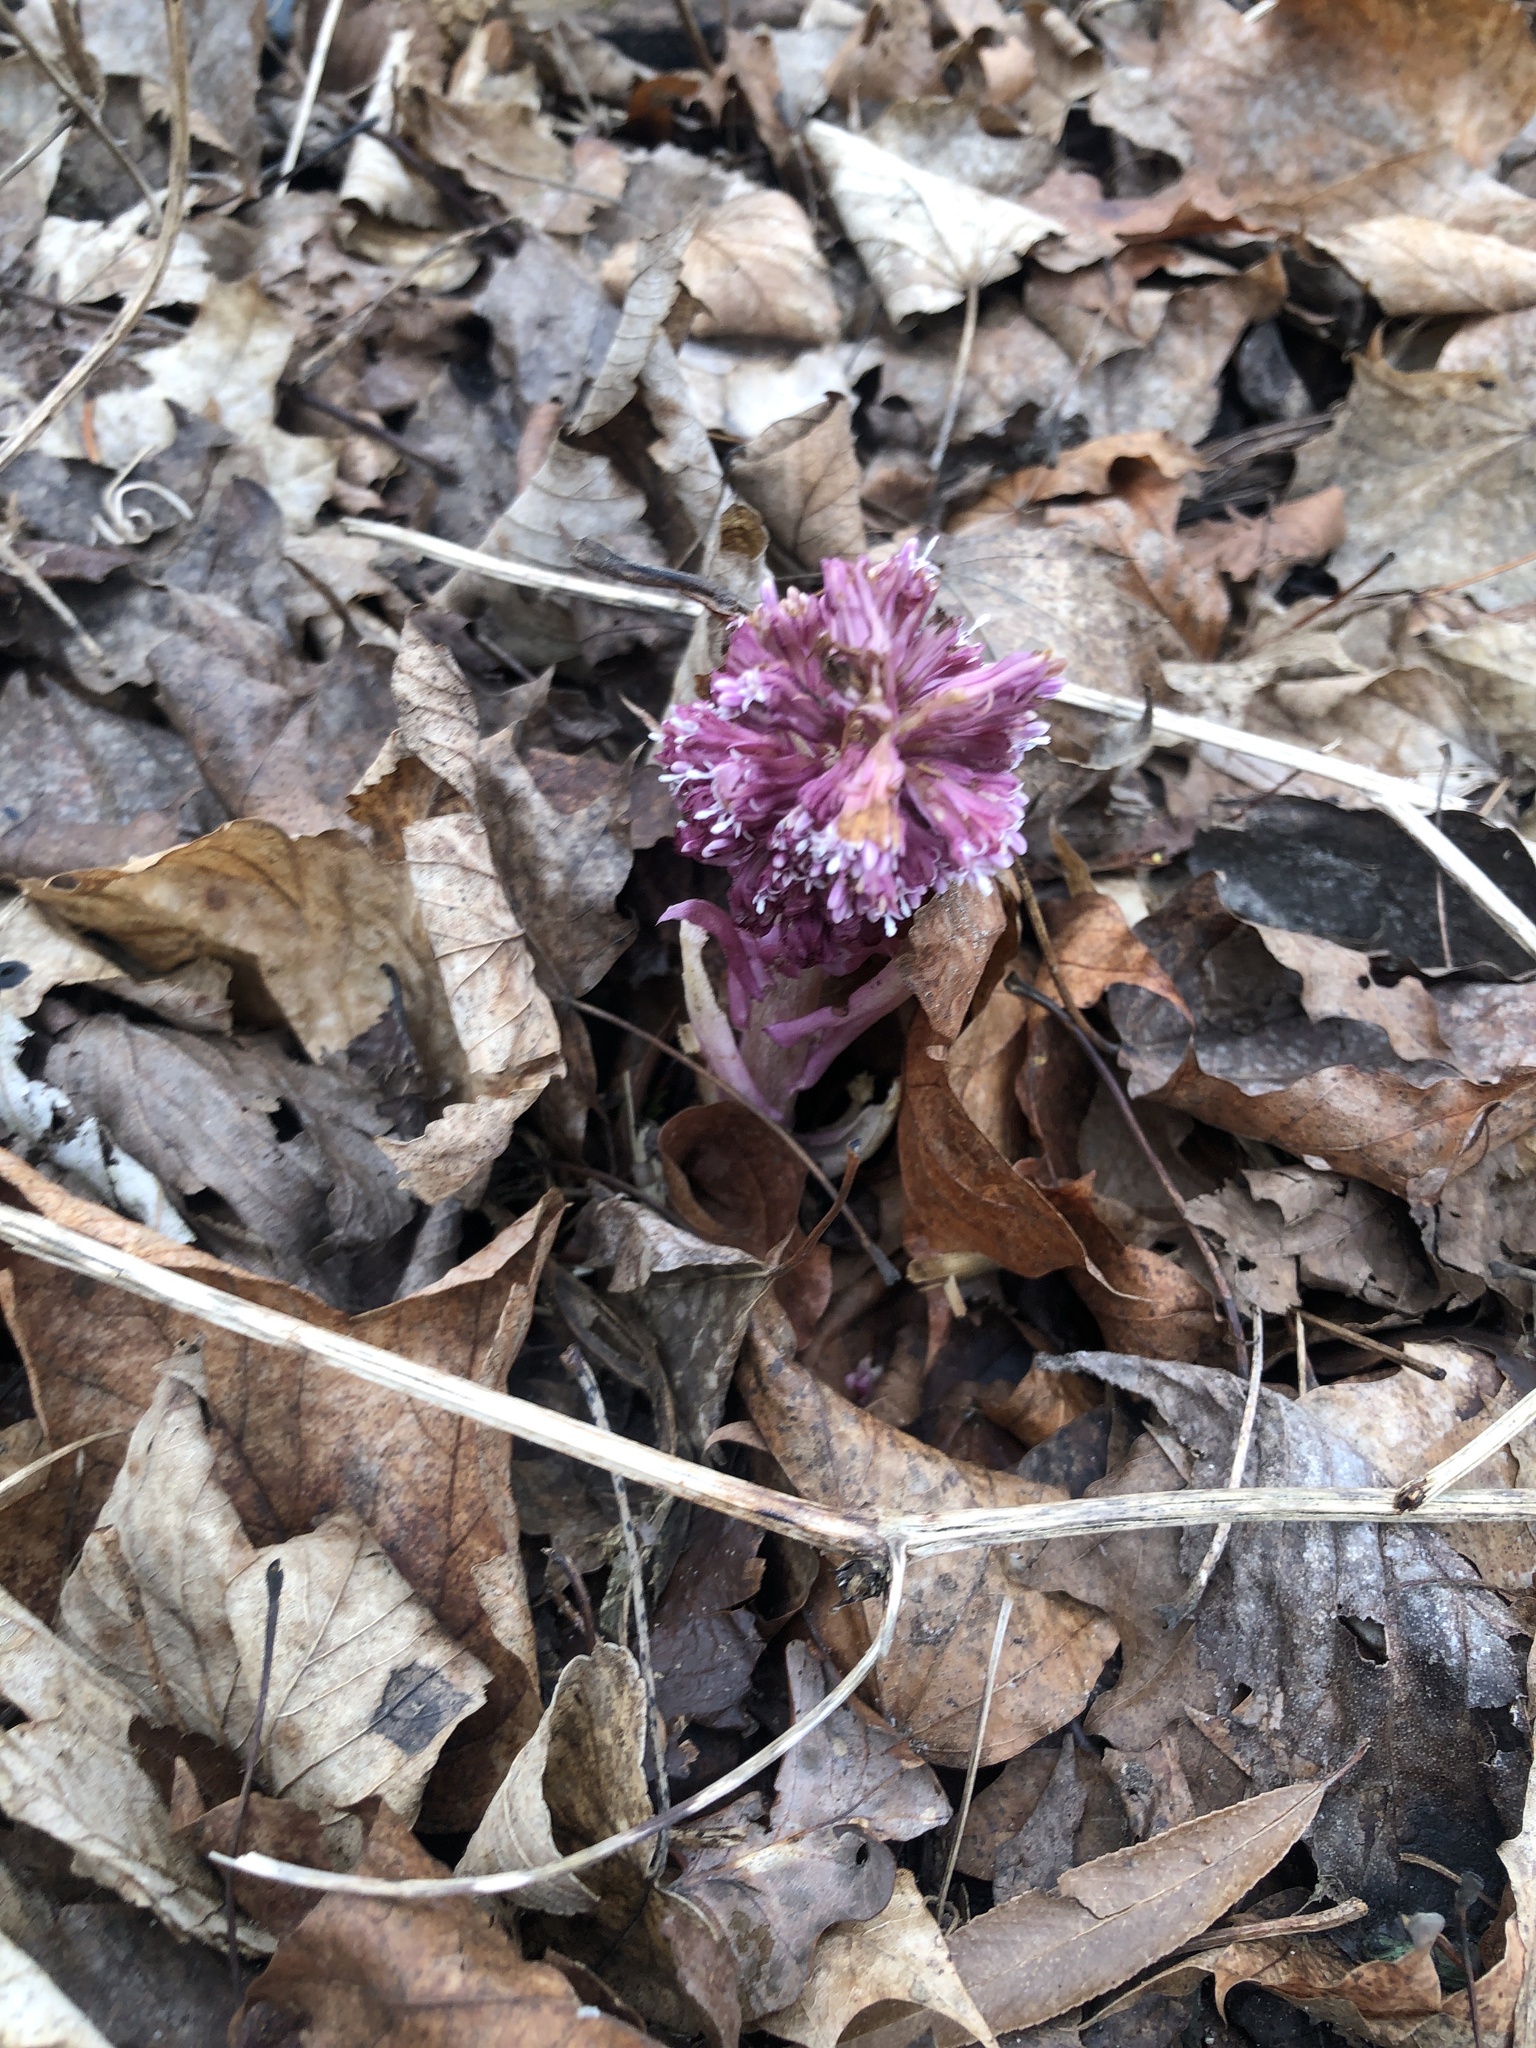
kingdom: Plantae
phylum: Tracheophyta
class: Magnoliopsida
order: Asterales
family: Asteraceae
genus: Petasites
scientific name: Petasites hybridus
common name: Butterbur
